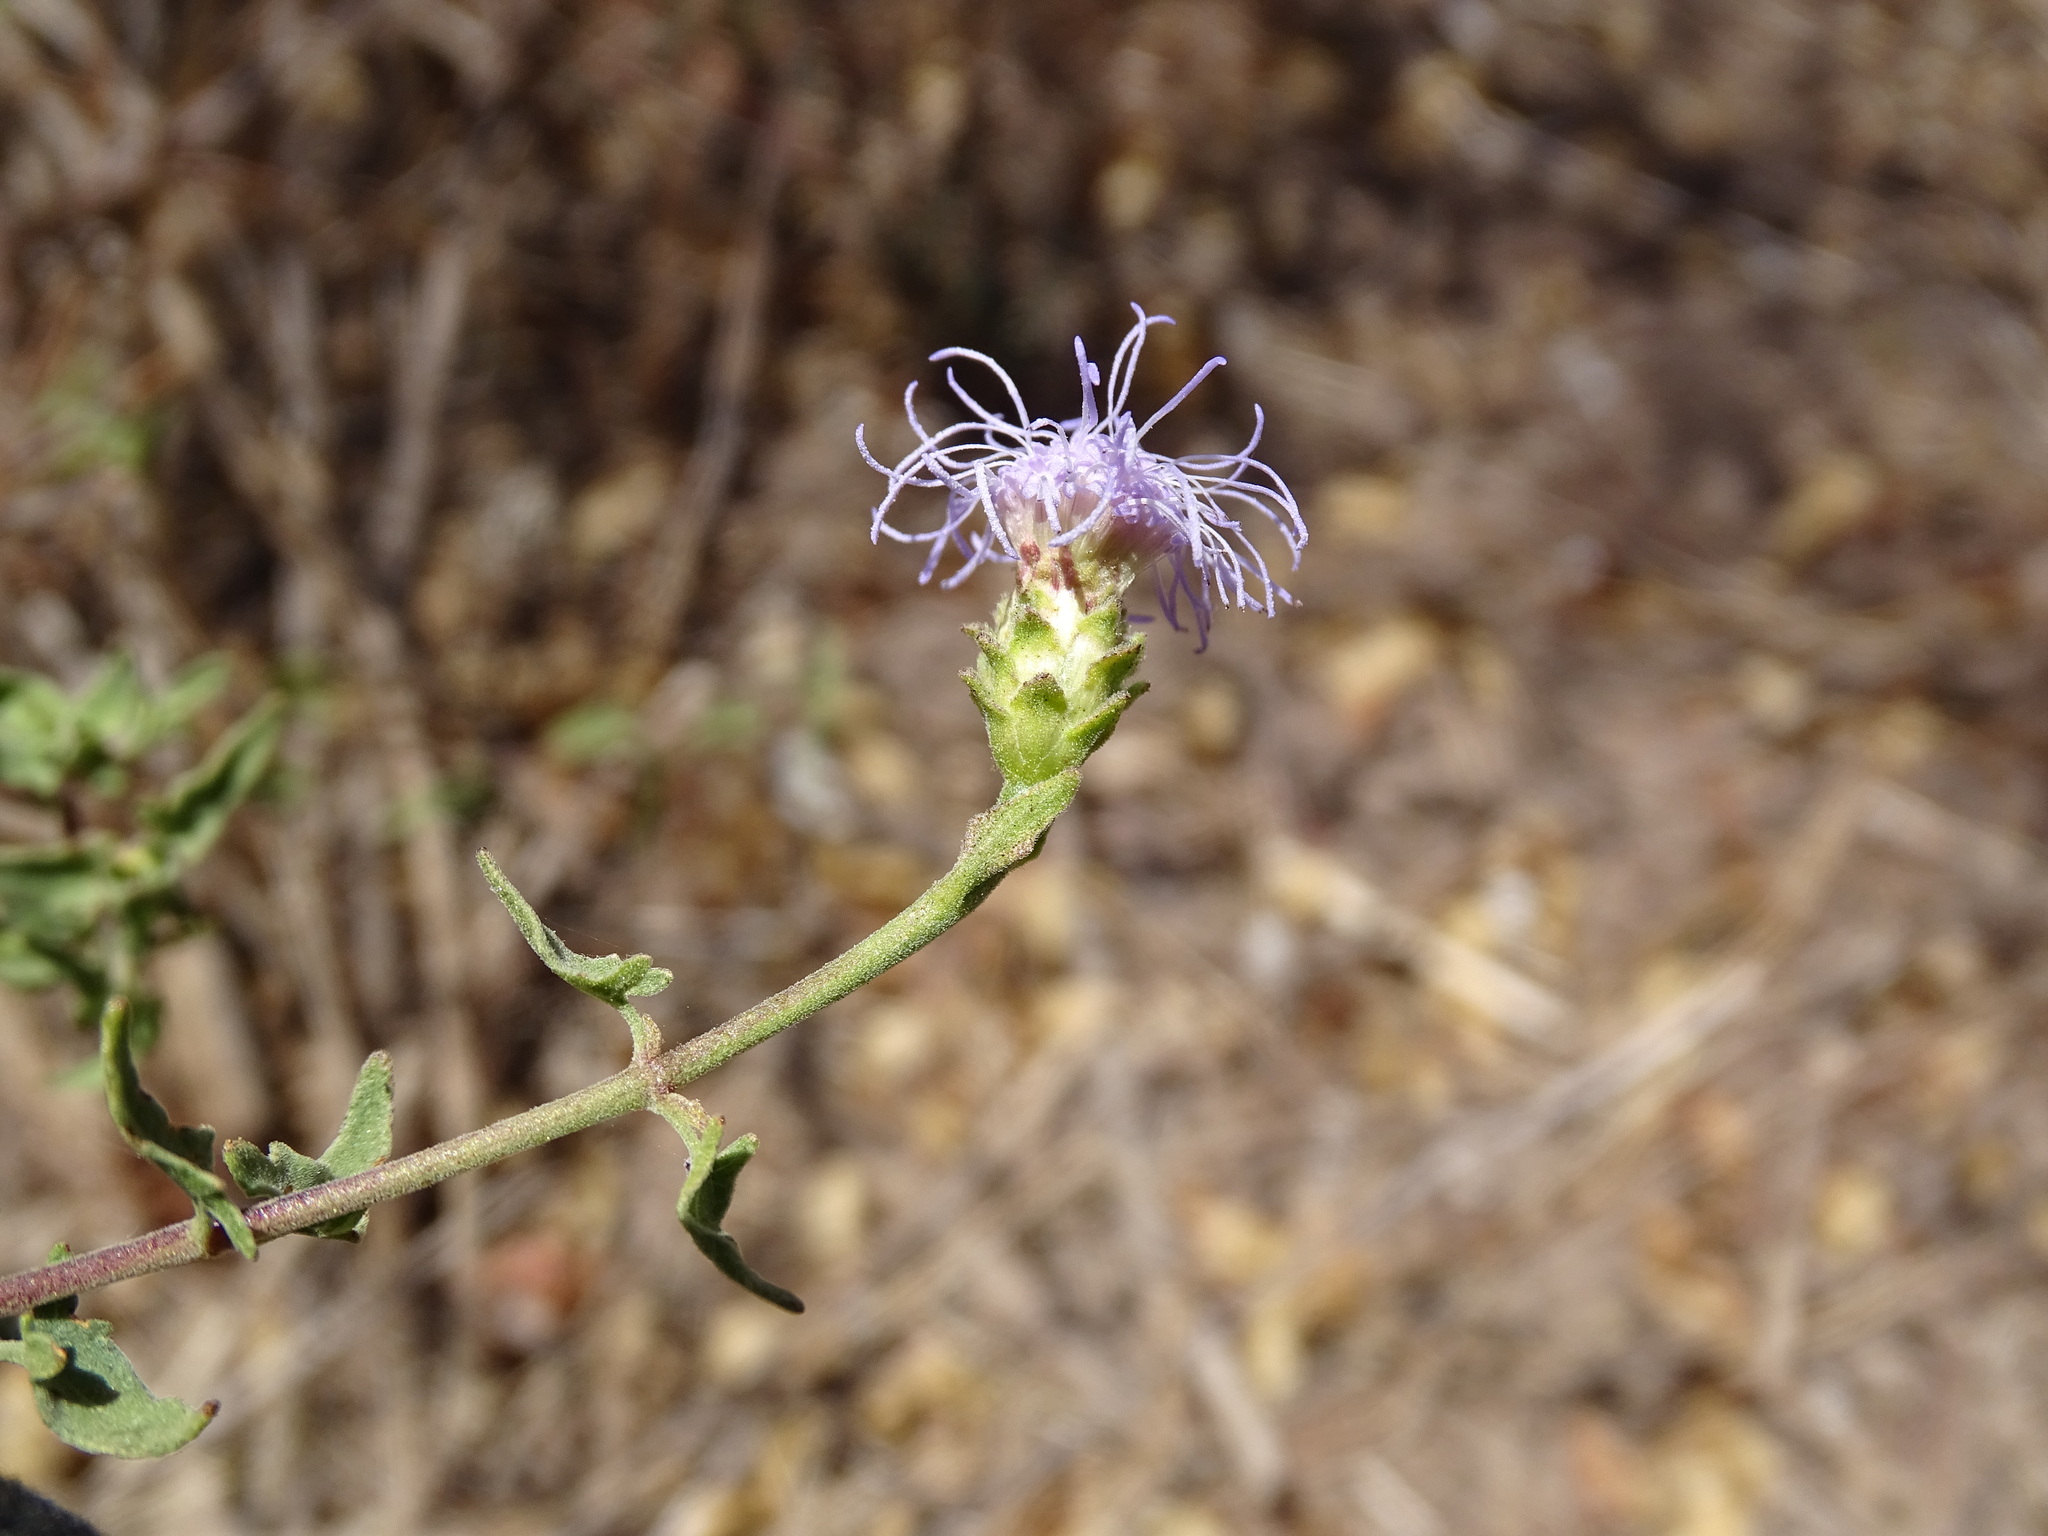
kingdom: Plantae
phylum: Tracheophyta
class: Magnoliopsida
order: Asterales
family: Asteraceae
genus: Chromolaena
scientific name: Chromolaena sagittata
